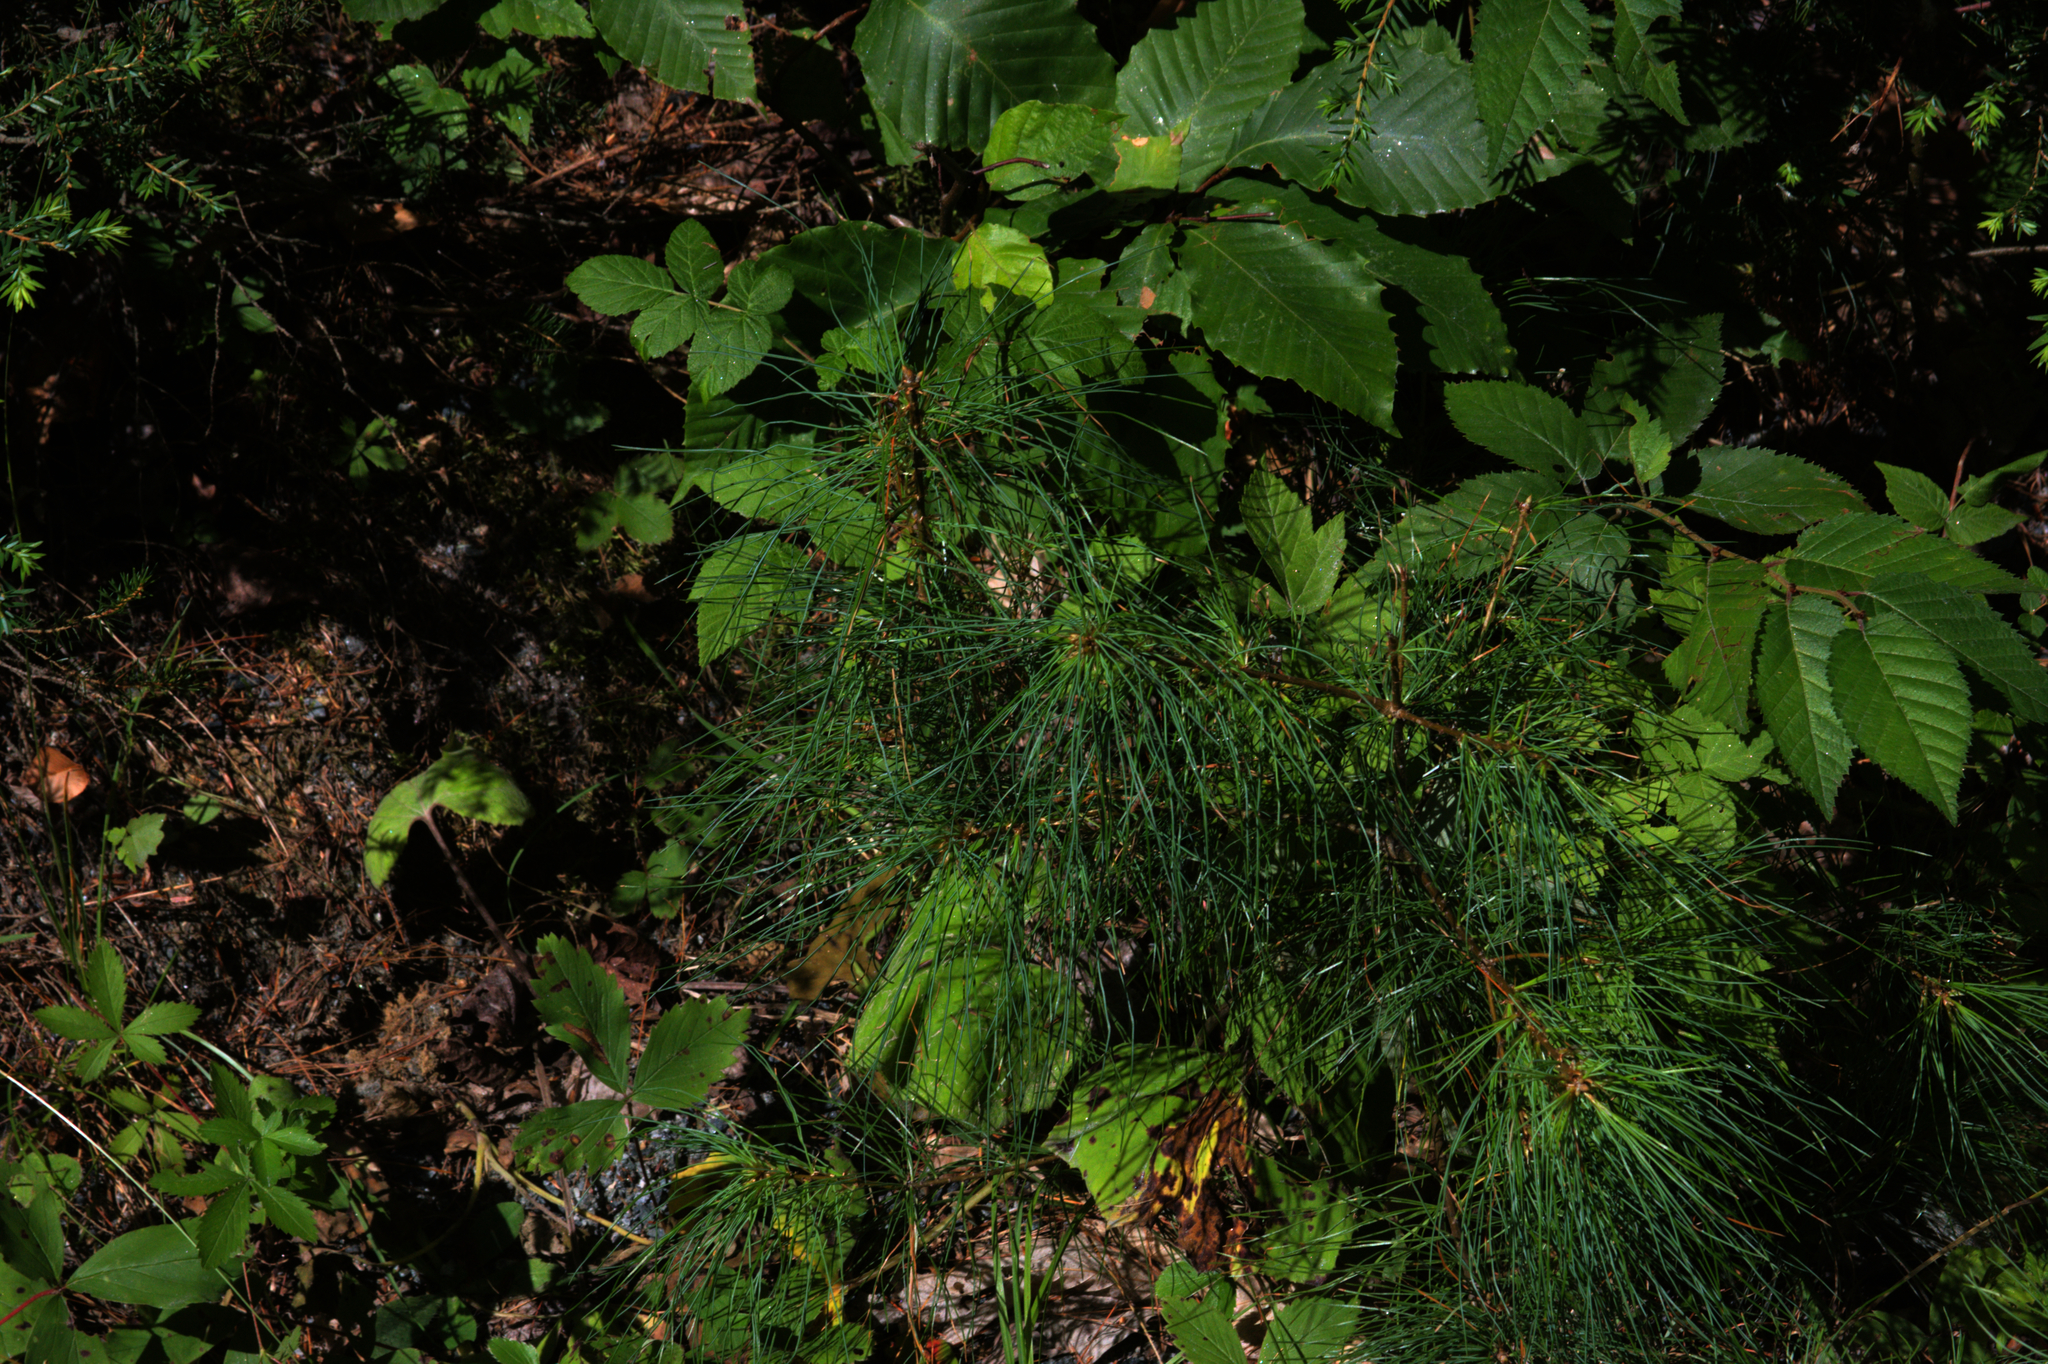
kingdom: Plantae
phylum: Tracheophyta
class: Pinopsida
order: Pinales
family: Pinaceae
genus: Pinus
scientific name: Pinus strobus
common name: Weymouth pine
